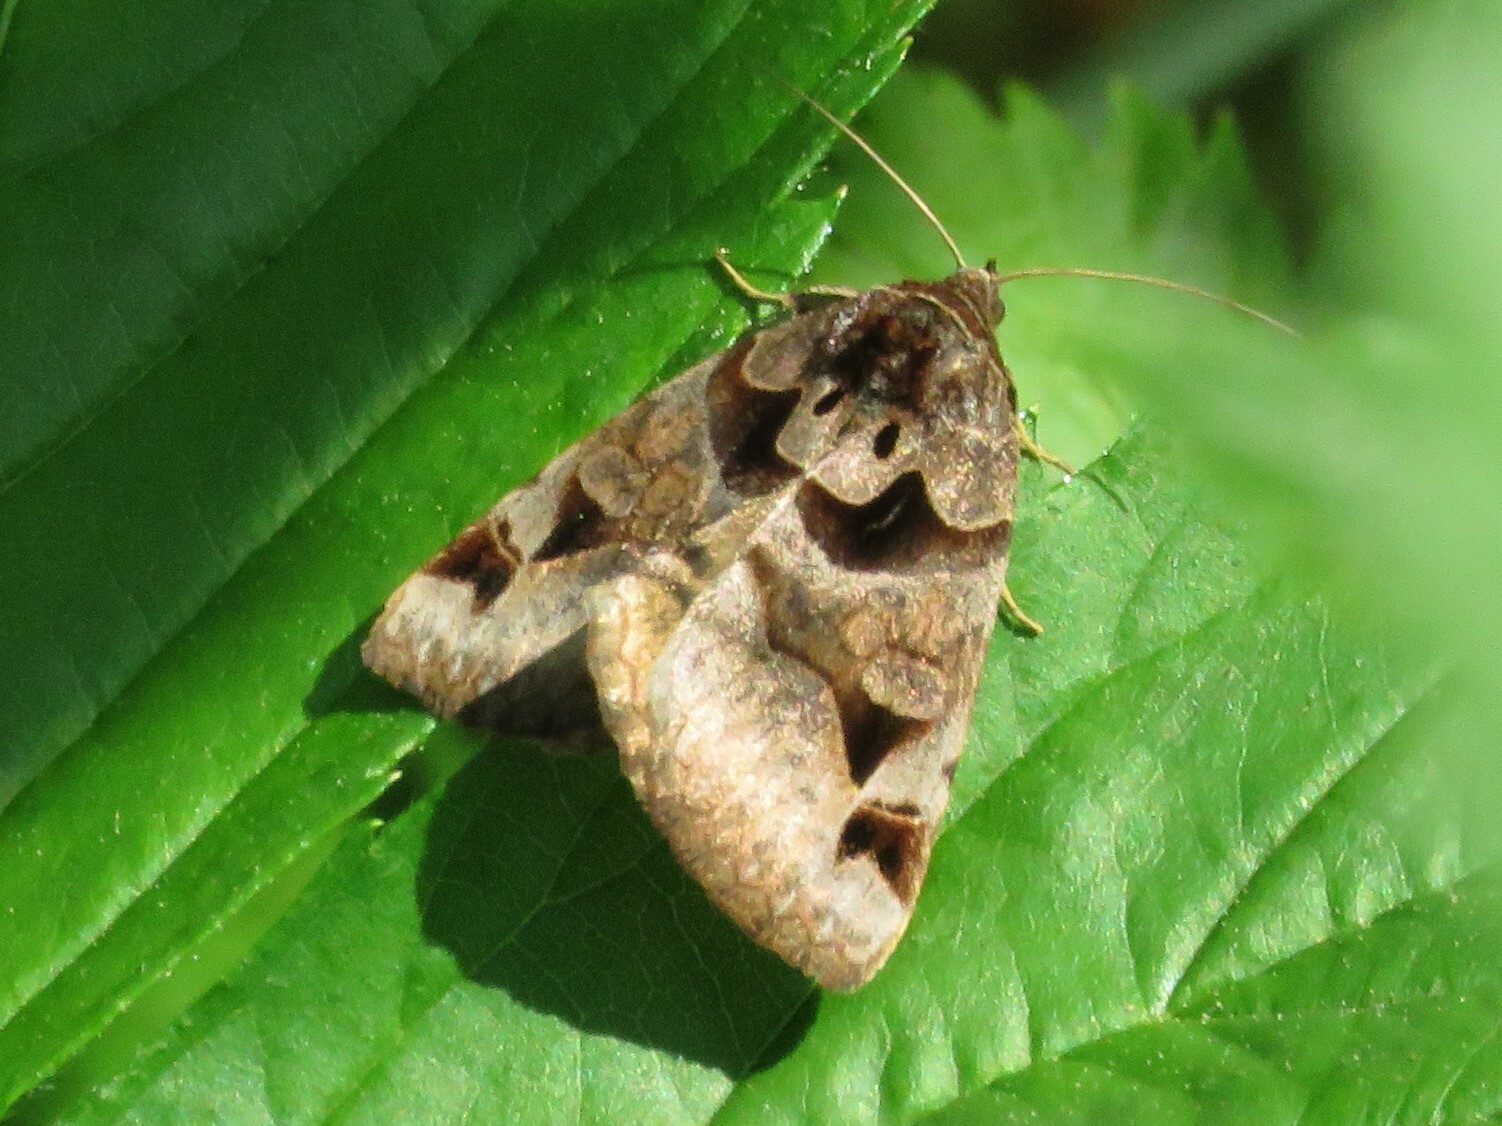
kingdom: Animalia
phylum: Arthropoda
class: Insecta
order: Lepidoptera
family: Erebidae
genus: Euclidia
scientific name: Euclidia cuspidea
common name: Toothed somberwing
